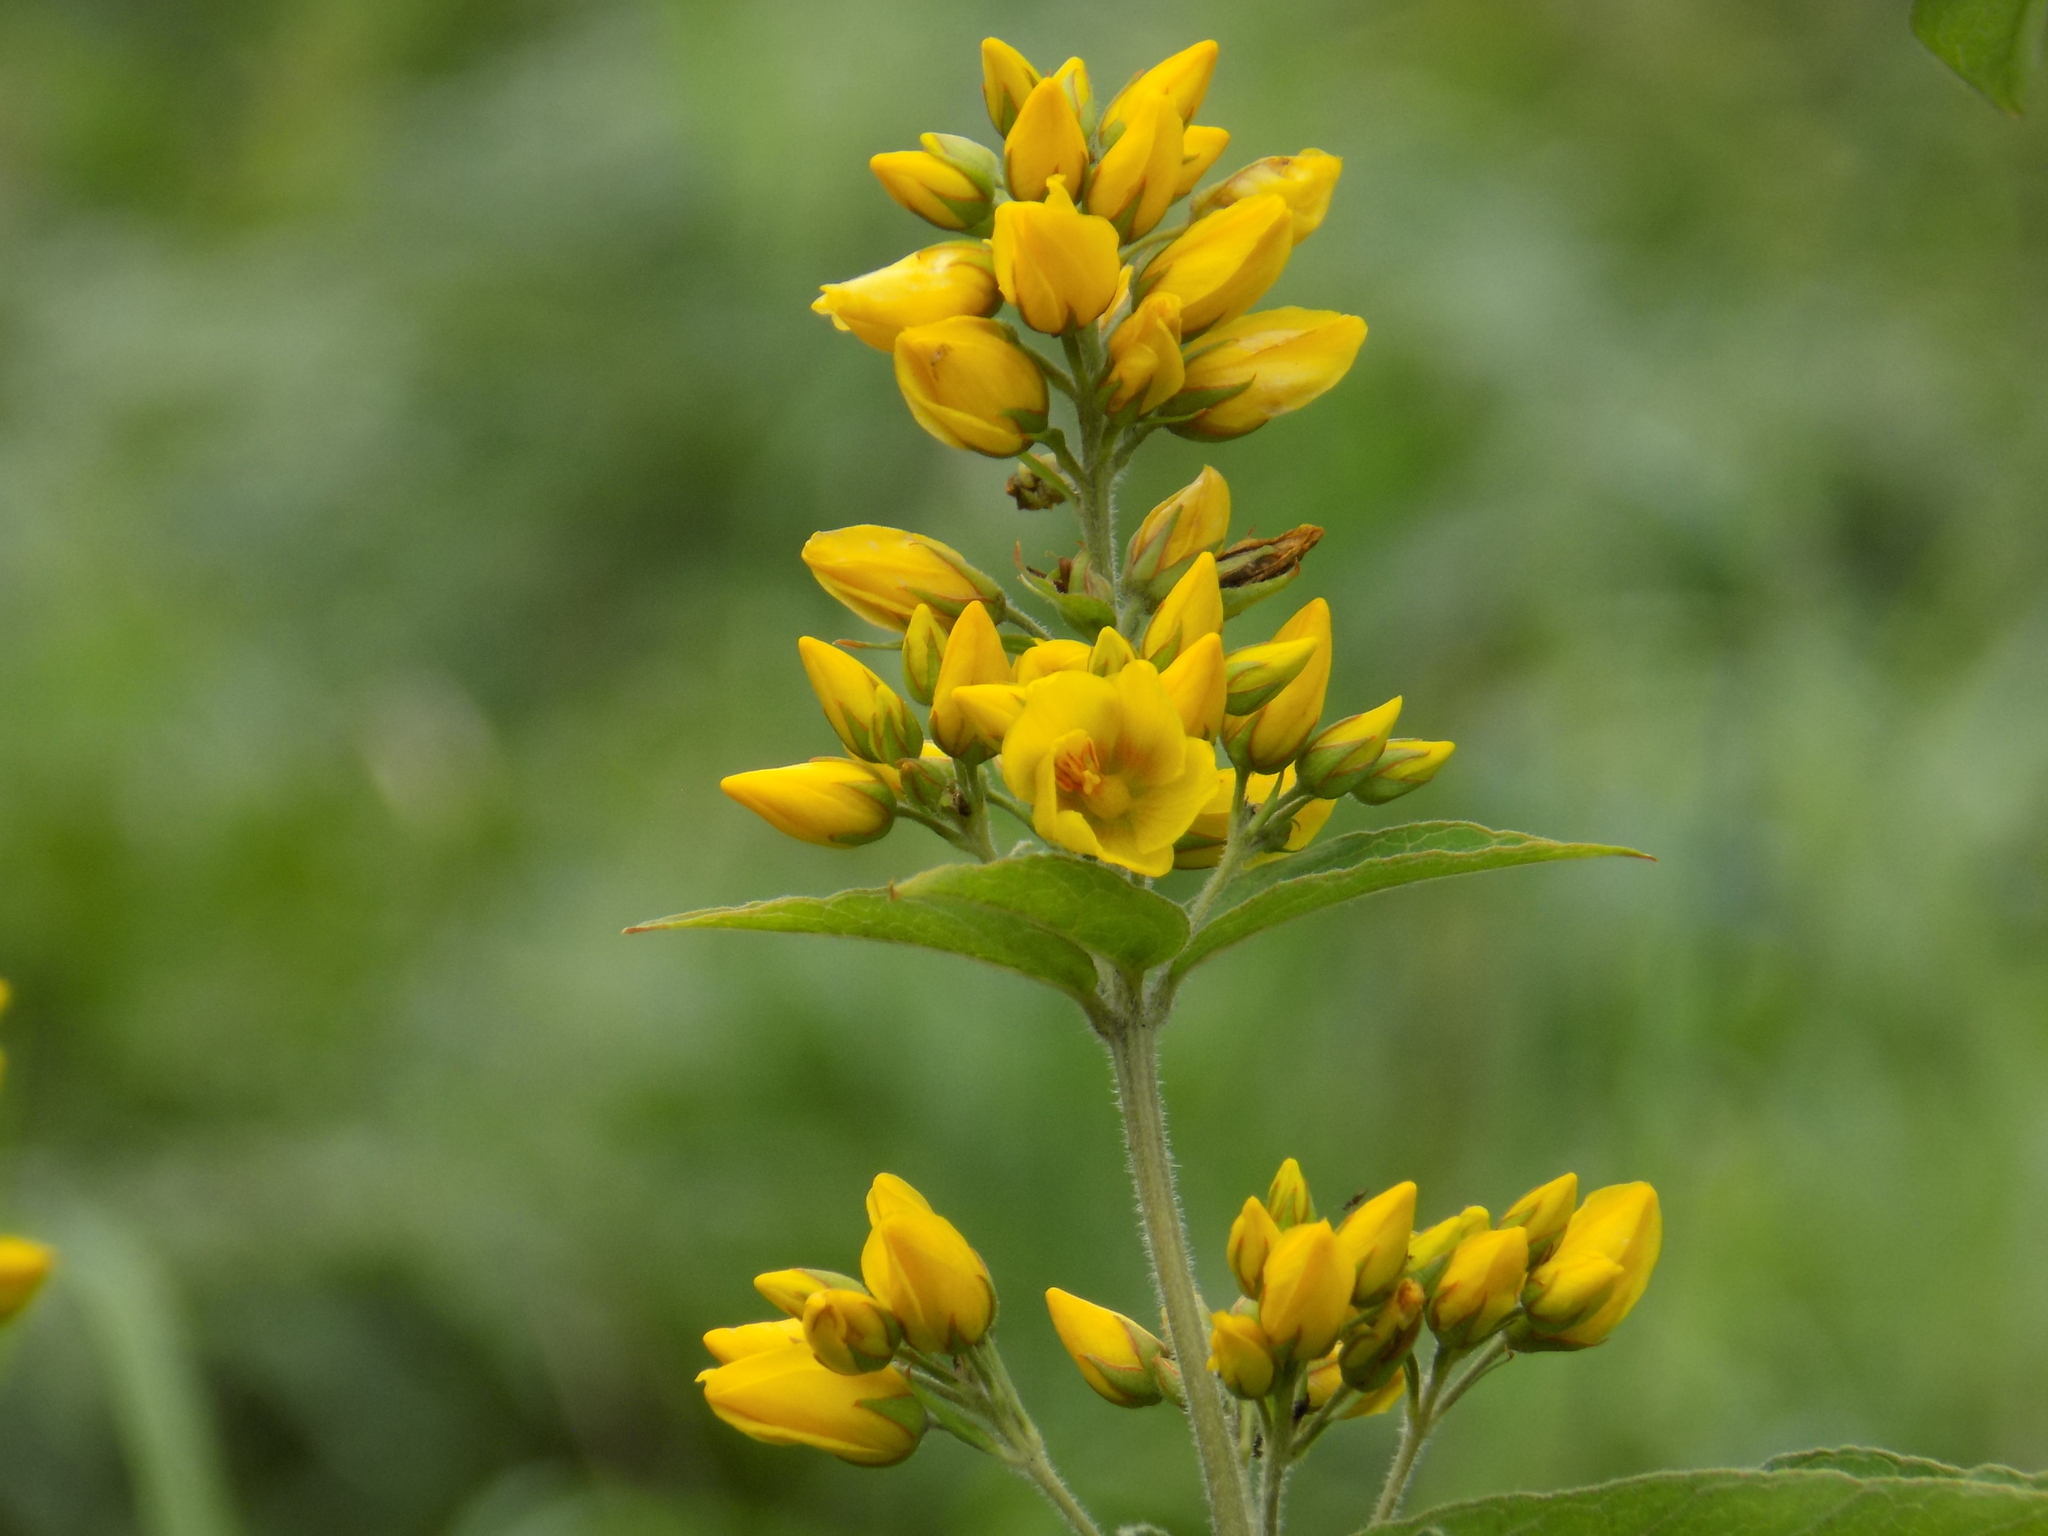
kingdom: Plantae
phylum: Tracheophyta
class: Magnoliopsida
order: Ericales
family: Primulaceae
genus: Lysimachia
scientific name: Lysimachia vulgaris
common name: Yellow loosestrife
